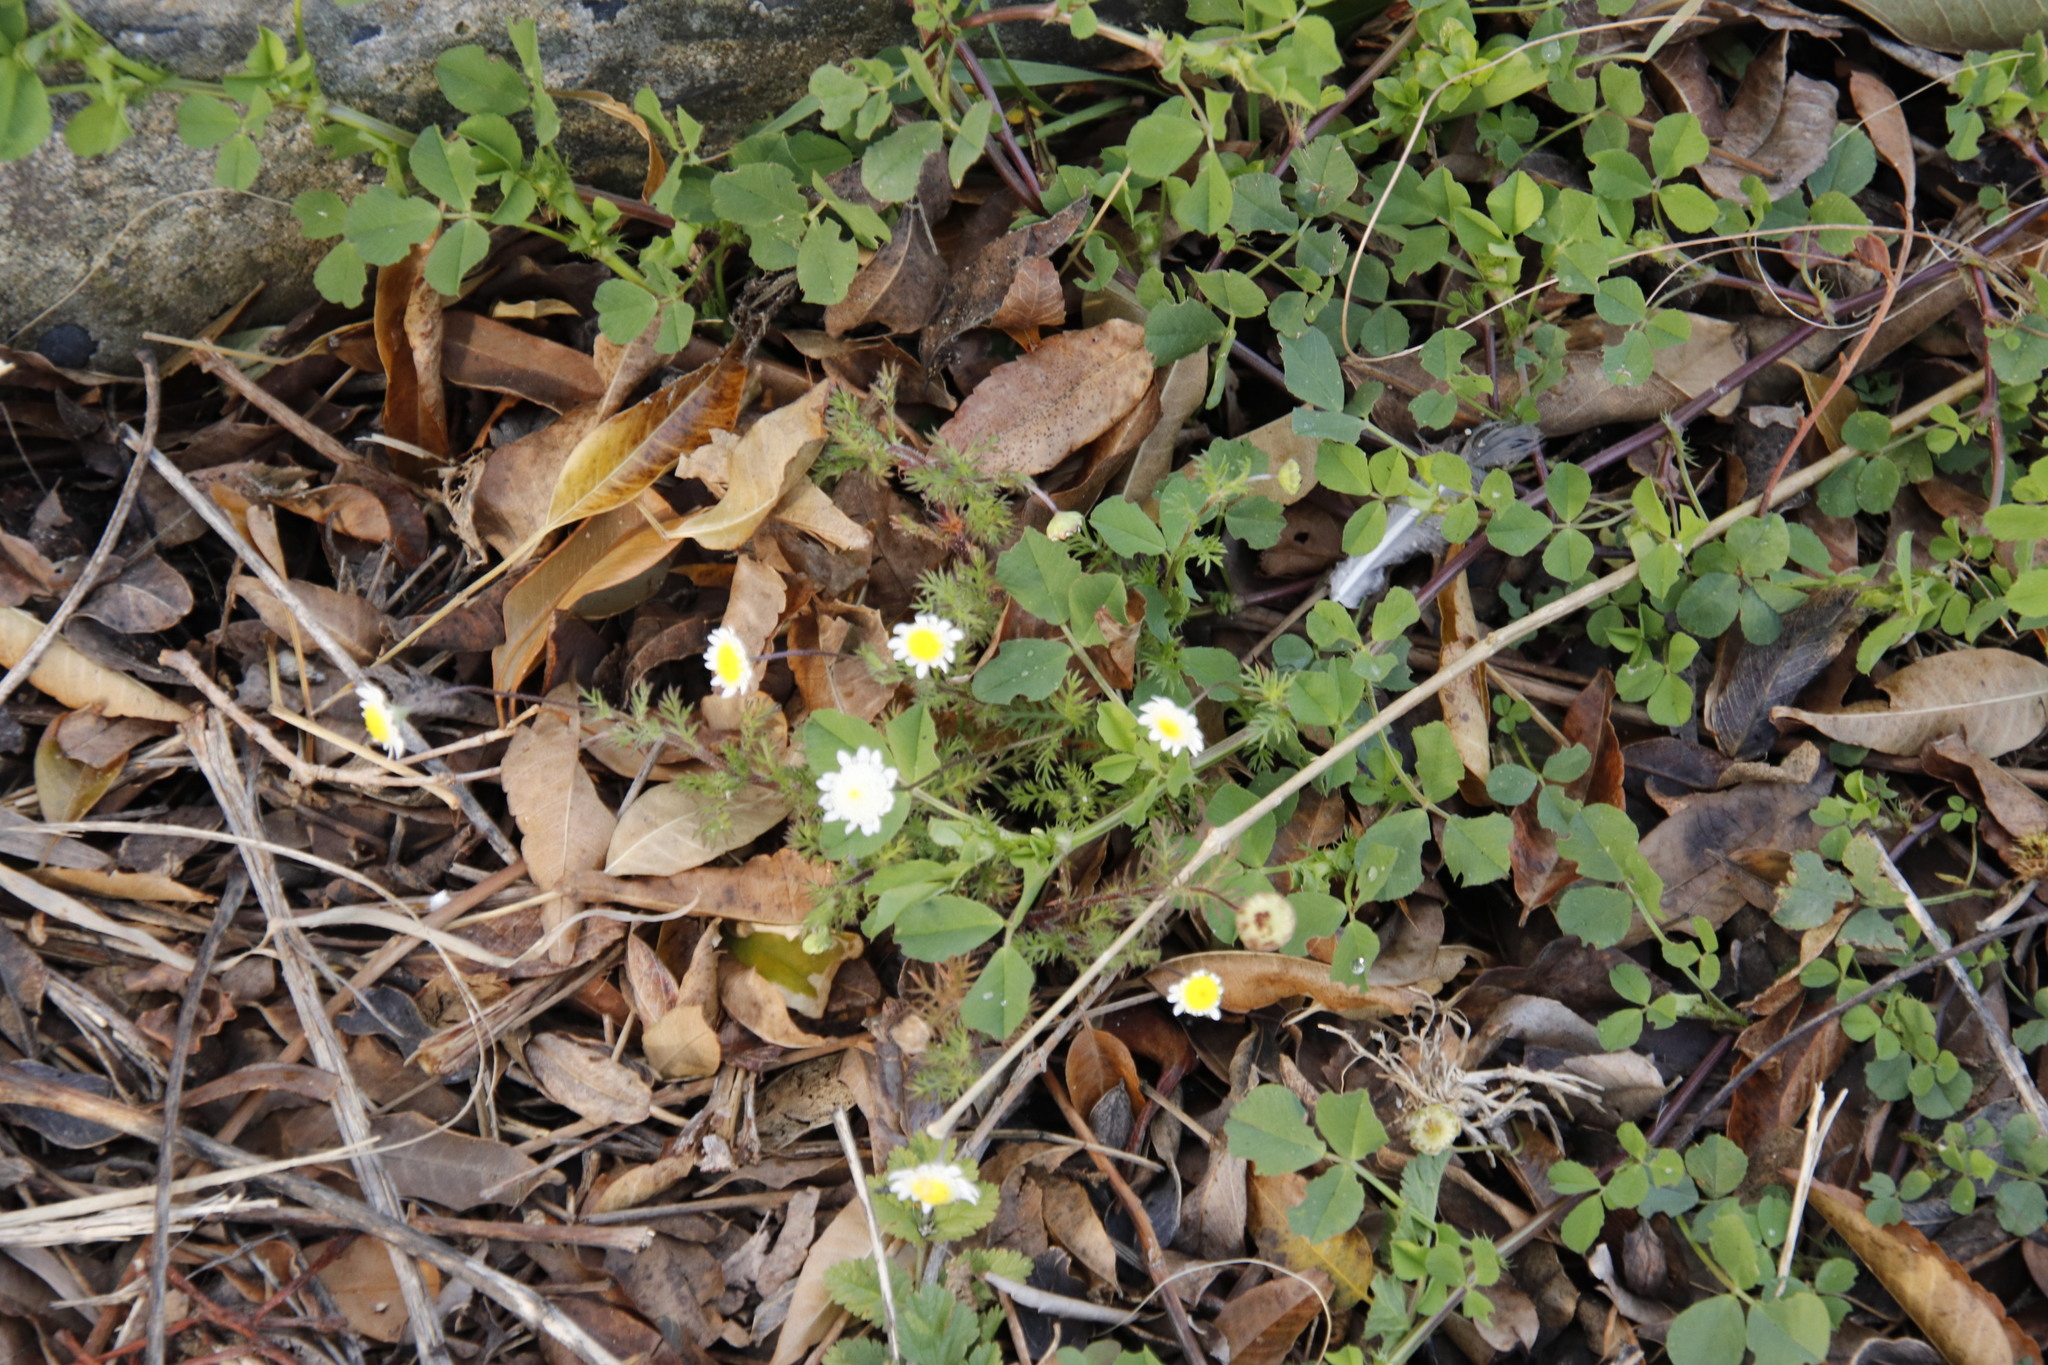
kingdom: Plantae
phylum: Tracheophyta
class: Magnoliopsida
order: Asterales
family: Asteraceae
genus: Cotula
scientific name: Cotula turbinata
